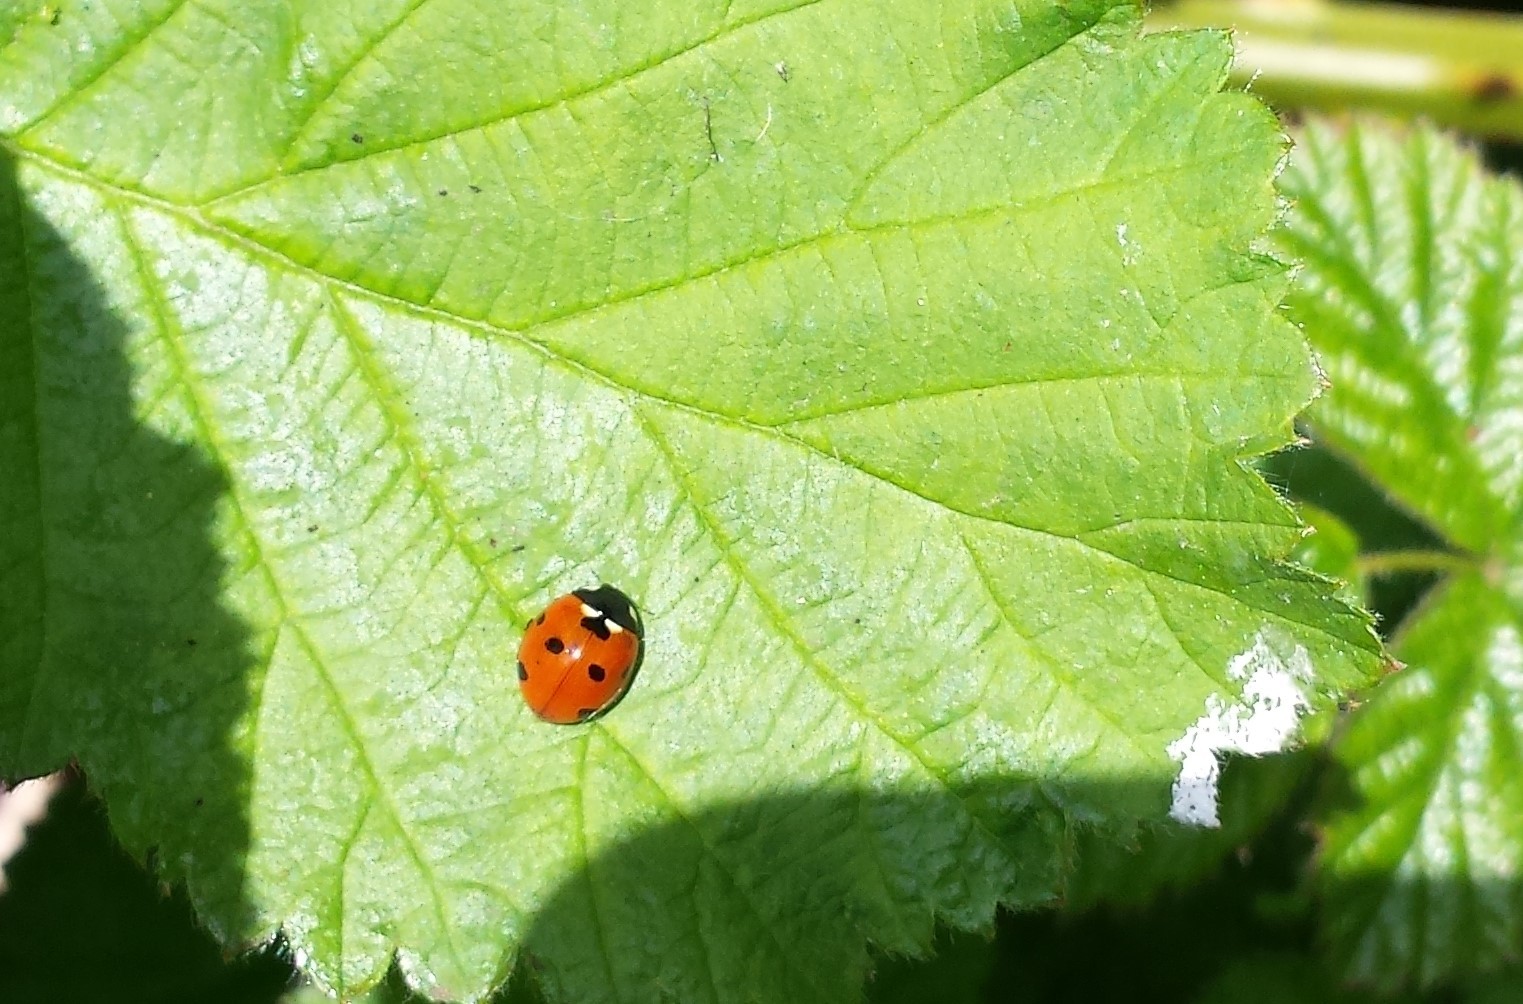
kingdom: Animalia
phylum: Arthropoda
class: Insecta
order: Coleoptera
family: Coccinellidae
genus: Coccinella
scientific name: Coccinella septempunctata
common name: Sevenspotted lady beetle
